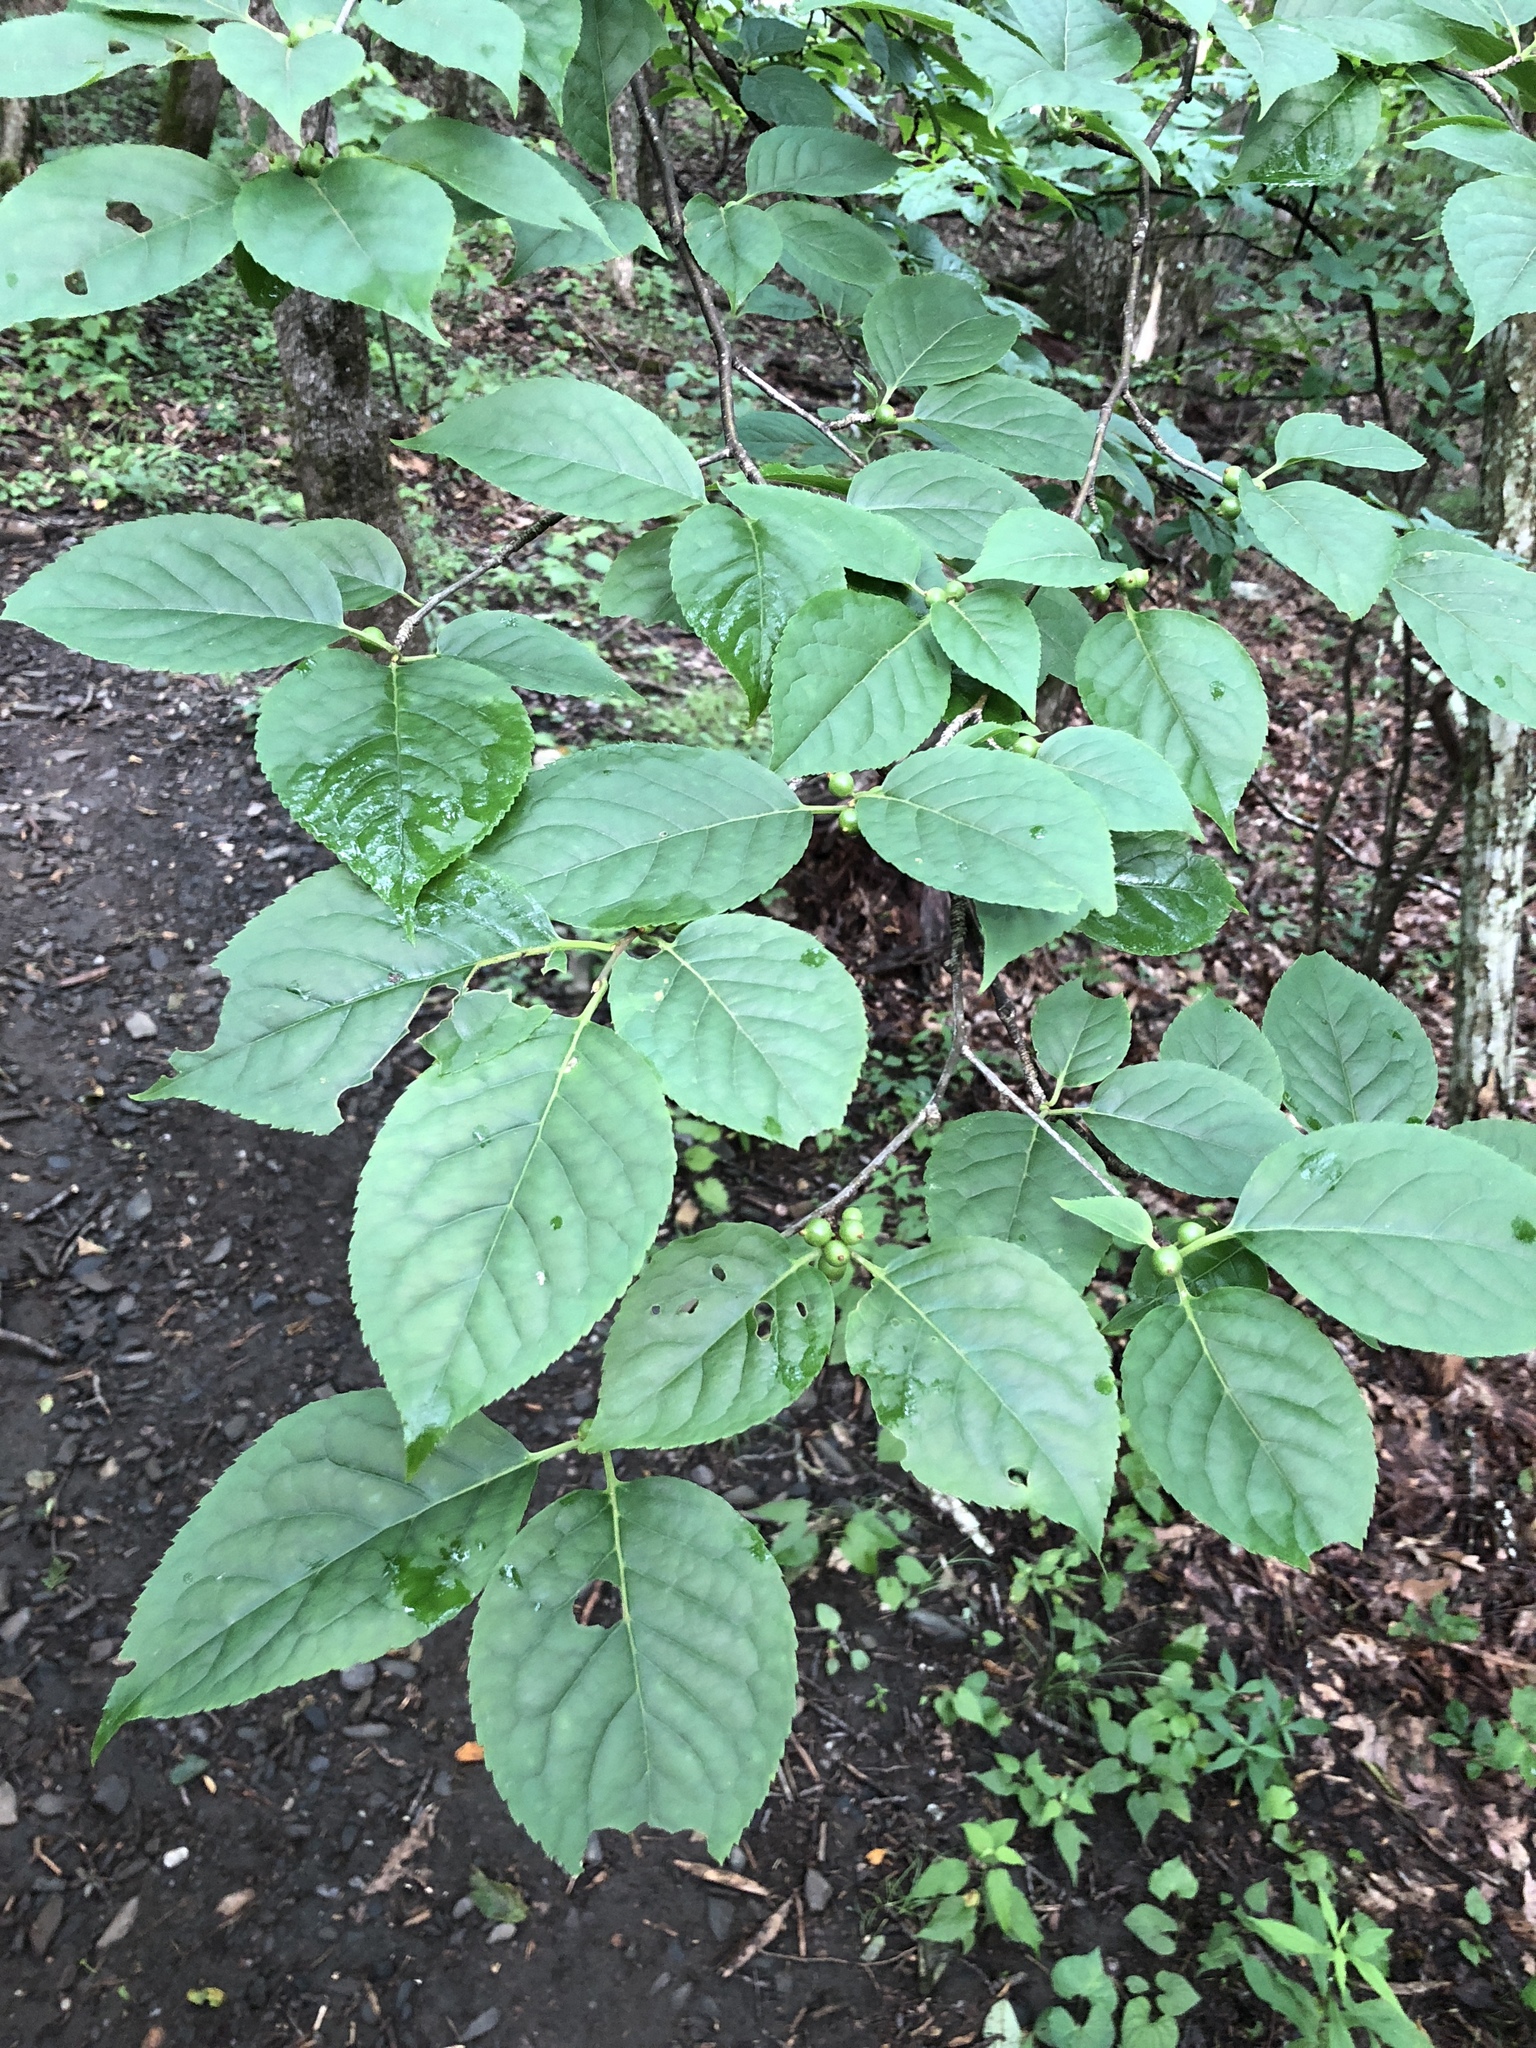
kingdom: Plantae
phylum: Tracheophyta
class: Magnoliopsida
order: Aquifoliales
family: Aquifoliaceae
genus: Ilex
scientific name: Ilex montana
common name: Mountain winterberry
